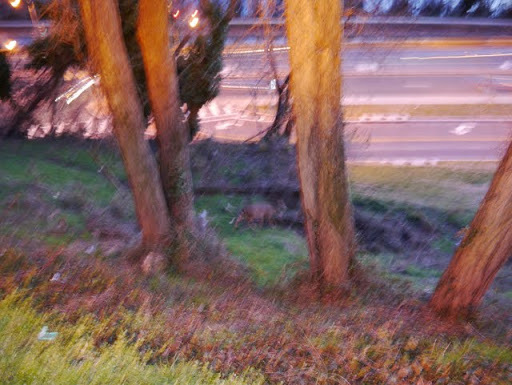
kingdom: Animalia
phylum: Chordata
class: Mammalia
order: Artiodactyla
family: Cervidae
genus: Odocoileus
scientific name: Odocoileus virginianus
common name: White-tailed deer
